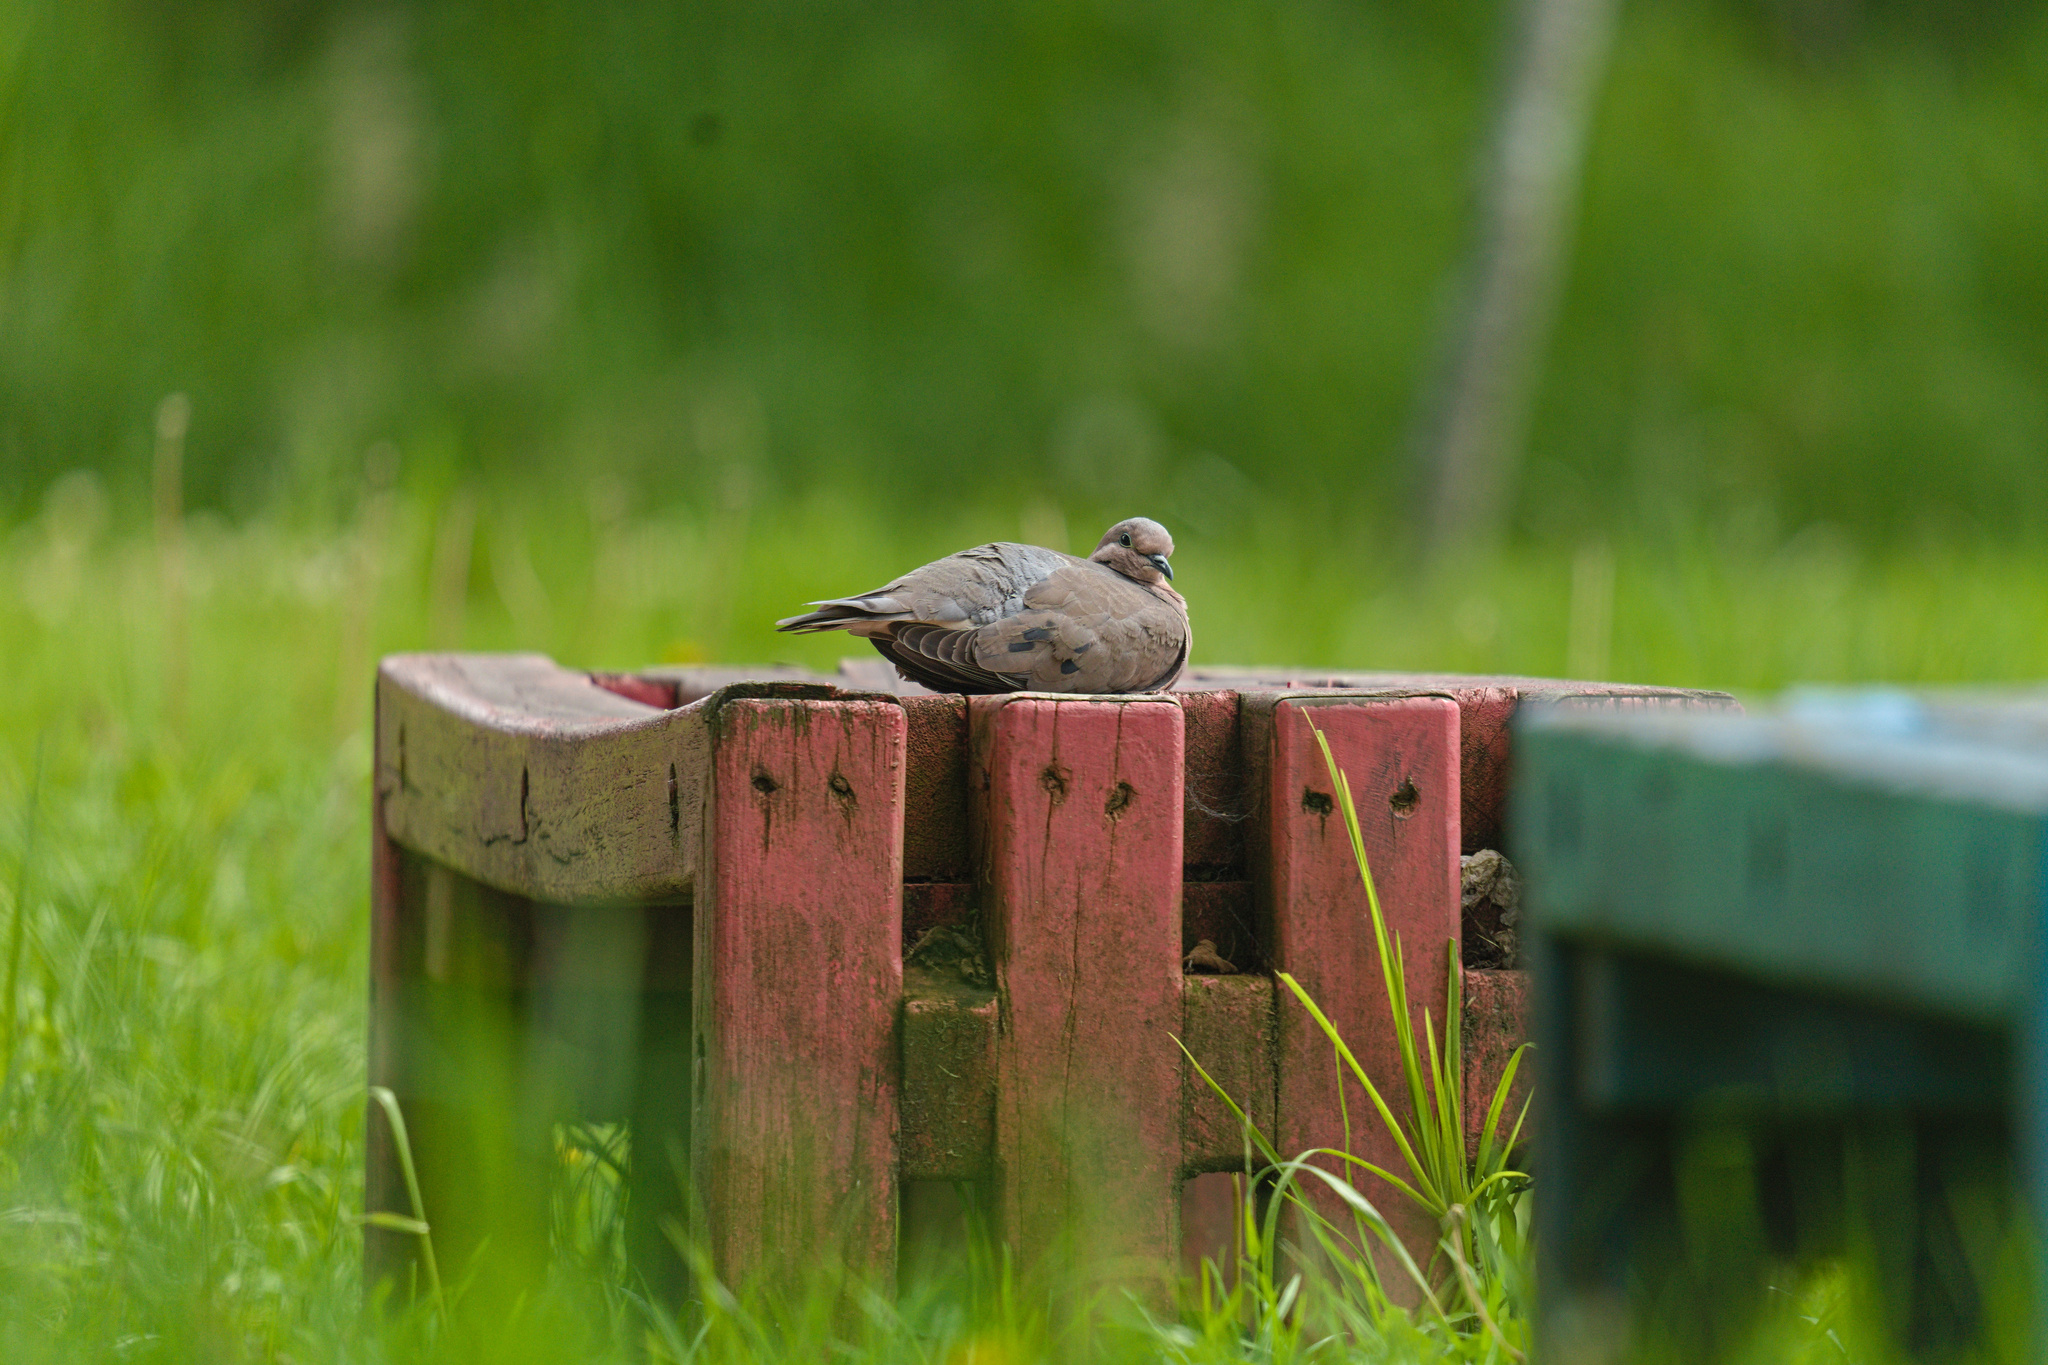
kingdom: Animalia
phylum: Chordata
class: Aves
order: Columbiformes
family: Columbidae
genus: Zenaida
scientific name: Zenaida auriculata
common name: Eared dove
